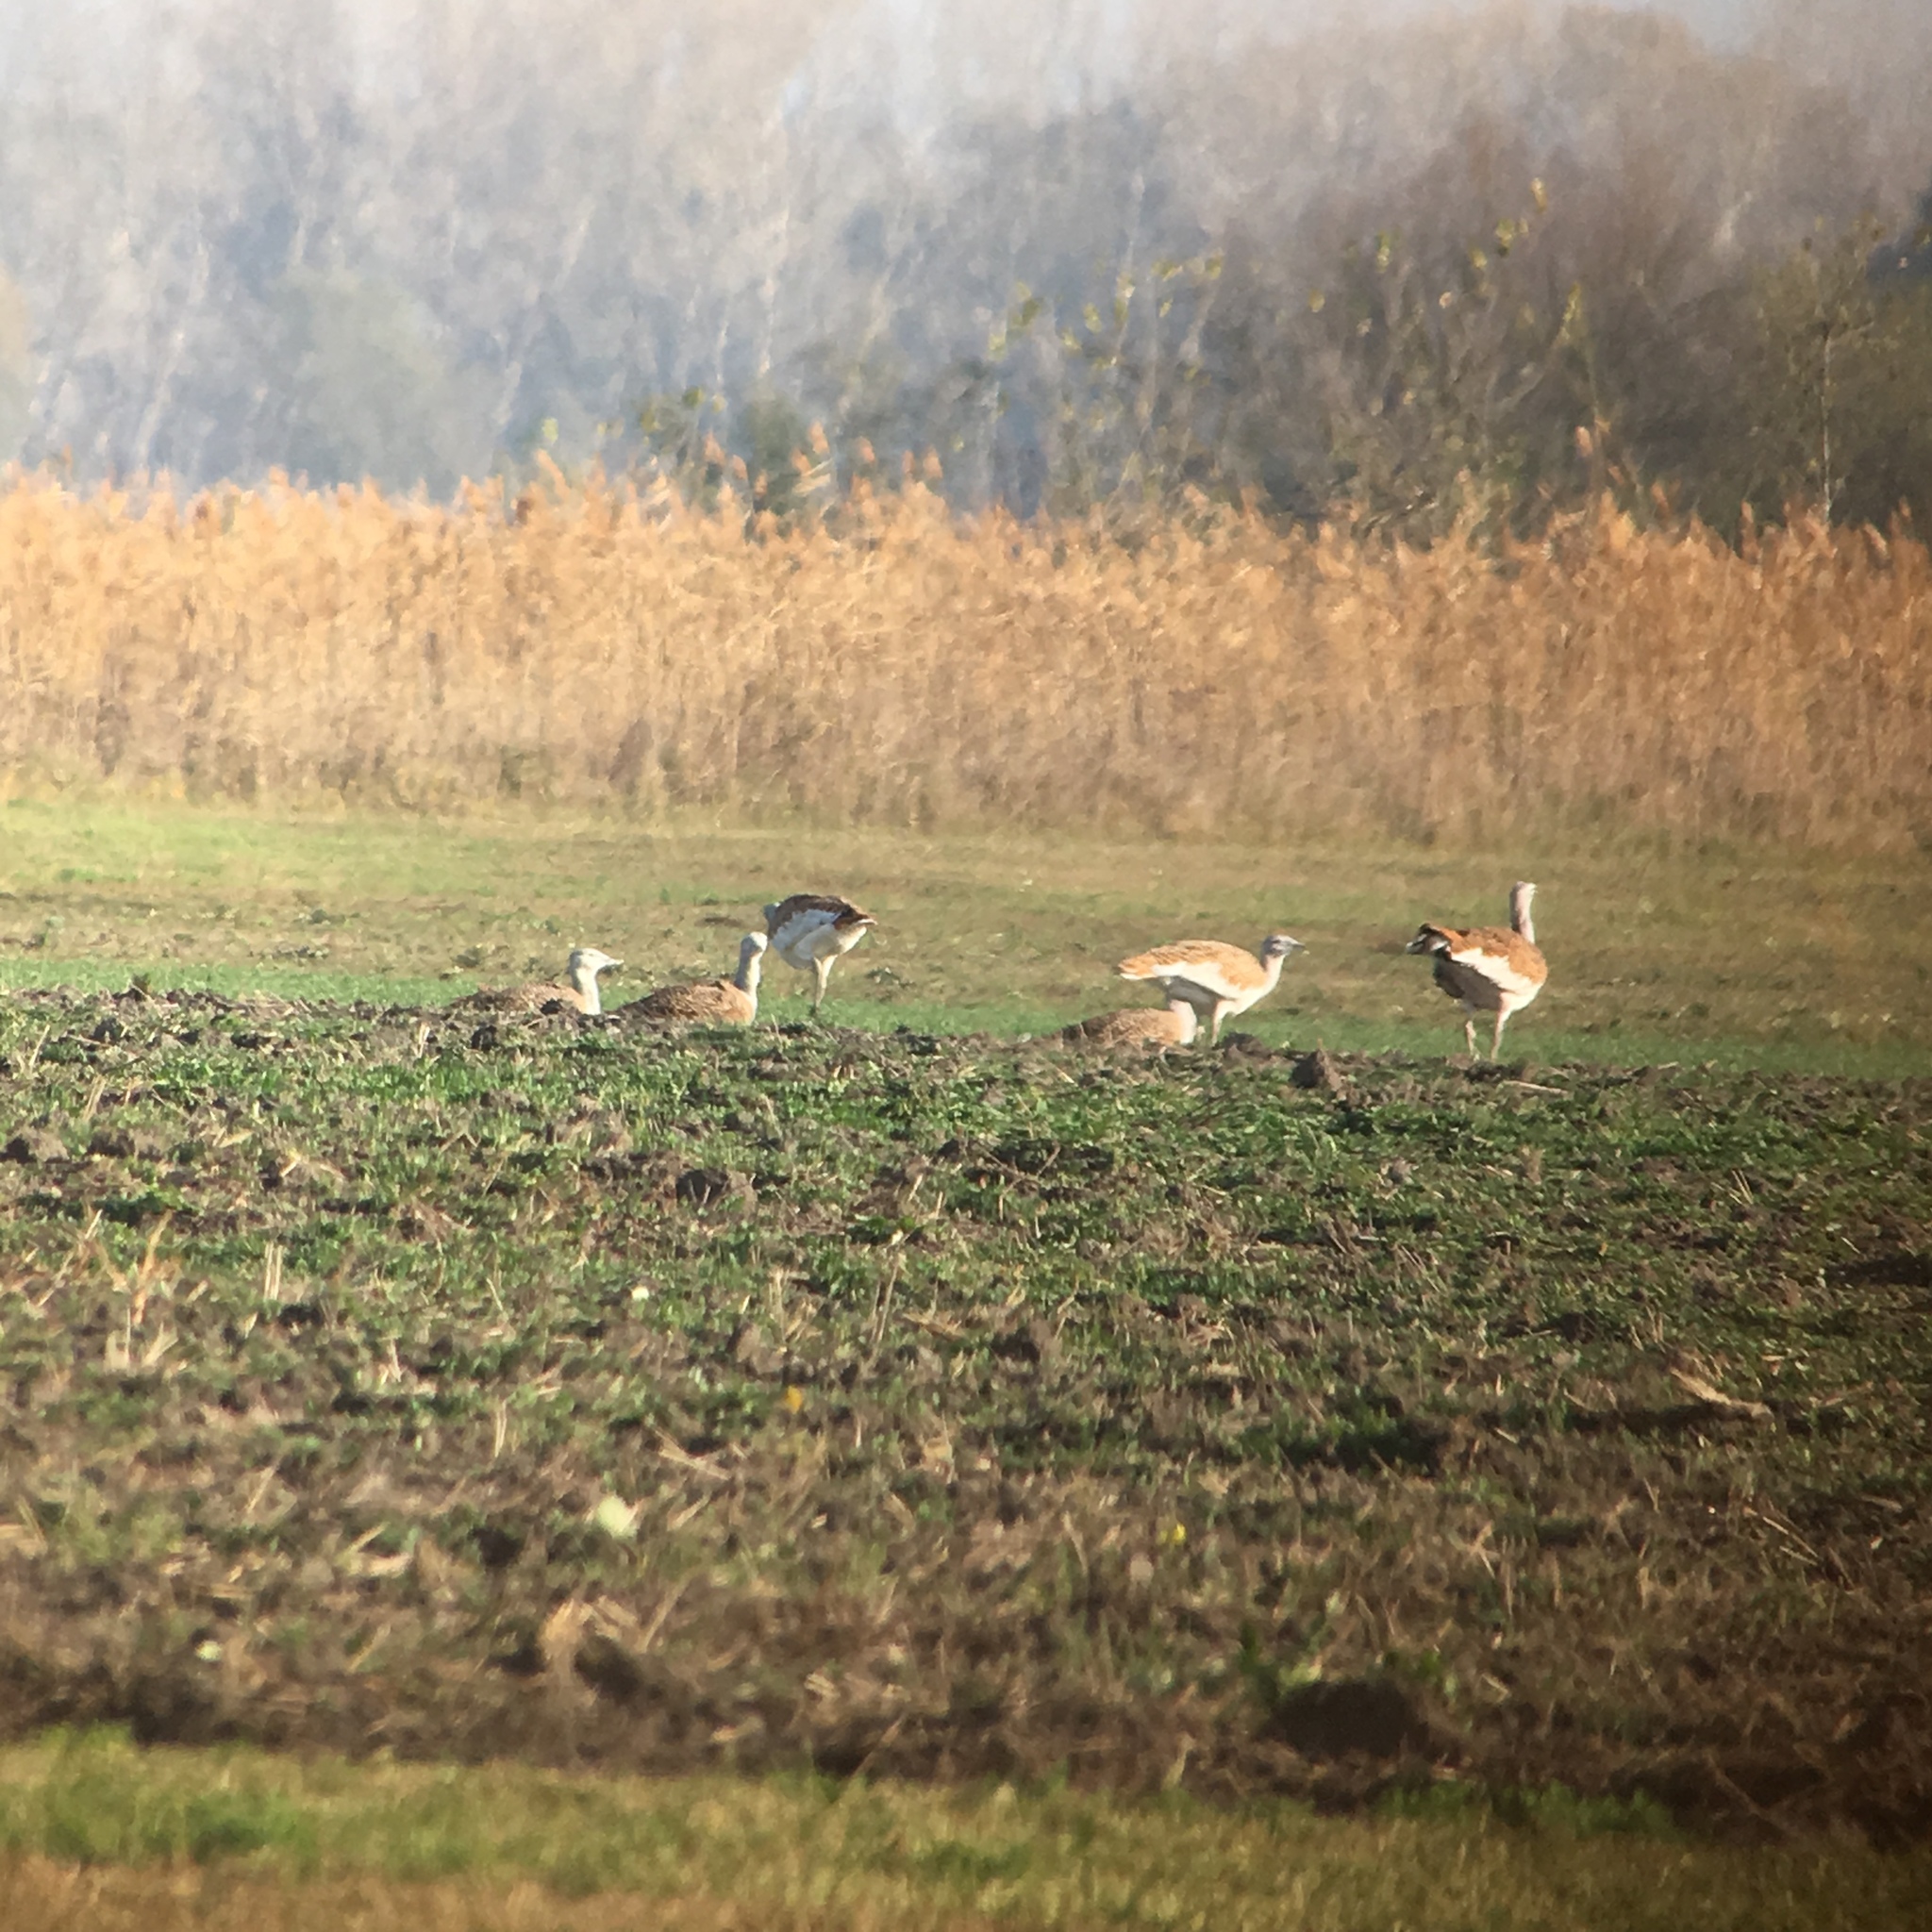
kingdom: Animalia
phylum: Chordata
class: Aves
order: Otidiformes
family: Otididae
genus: Otis
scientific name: Otis tarda
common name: Great bustard
